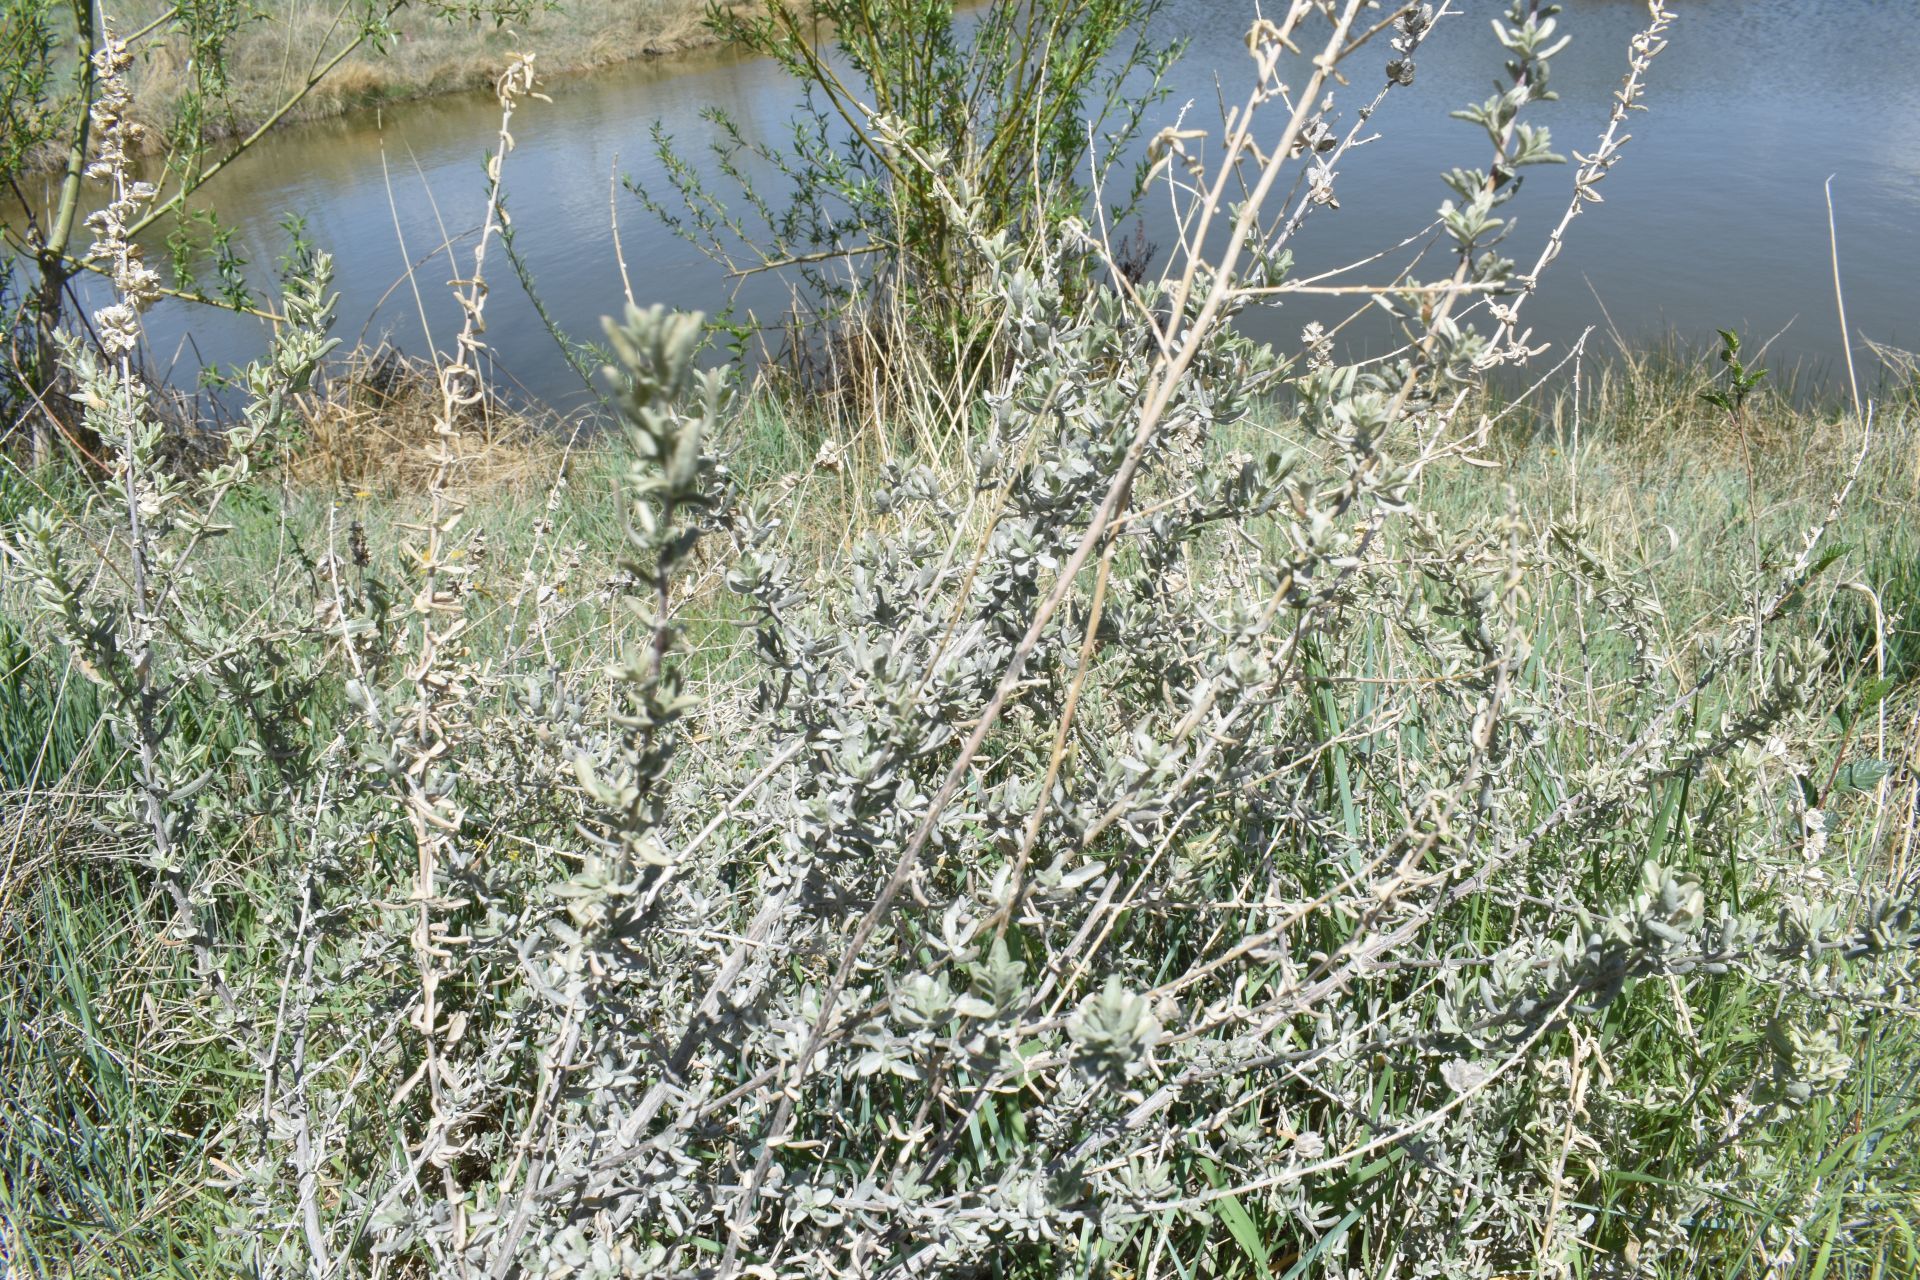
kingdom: Plantae
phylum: Tracheophyta
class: Magnoliopsida
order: Caryophyllales
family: Amaranthaceae
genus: Atriplex
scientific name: Atriplex canescens
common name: Four-wing saltbush
